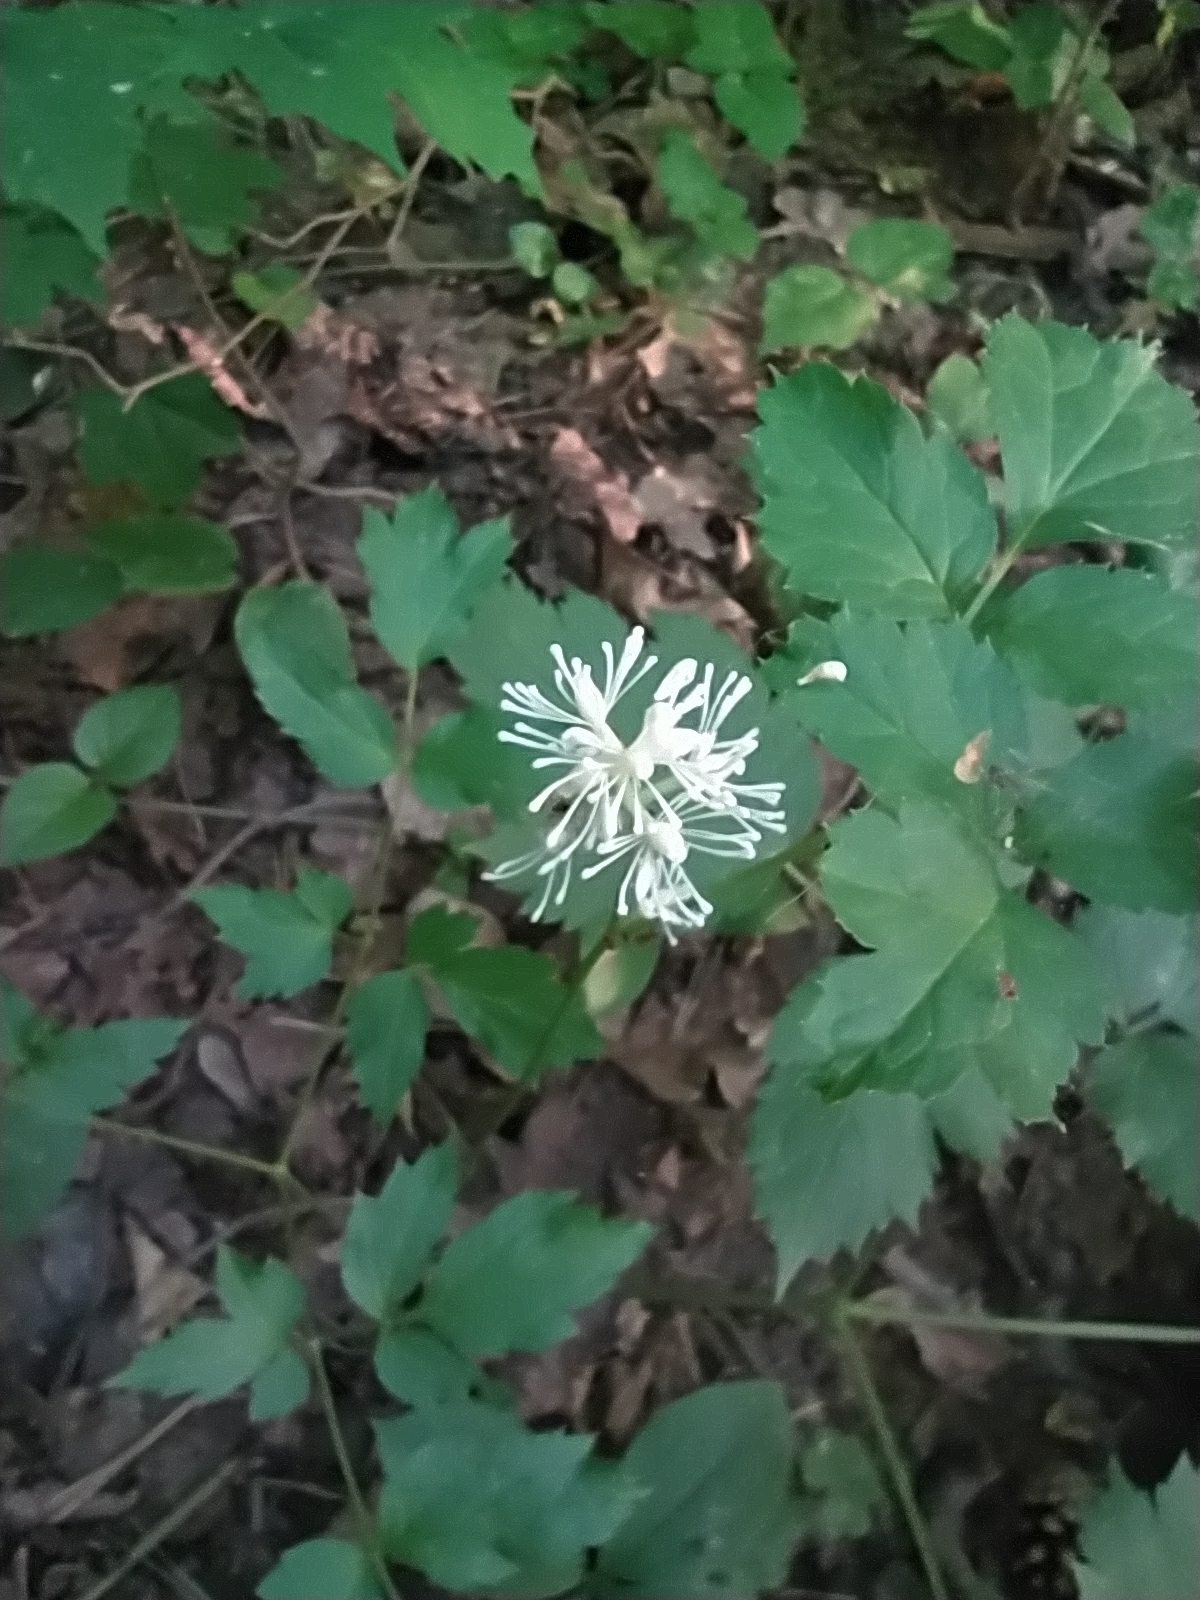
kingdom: Plantae
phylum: Tracheophyta
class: Magnoliopsida
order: Ranunculales
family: Ranunculaceae
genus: Actaea
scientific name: Actaea spicata
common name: Baneberry
